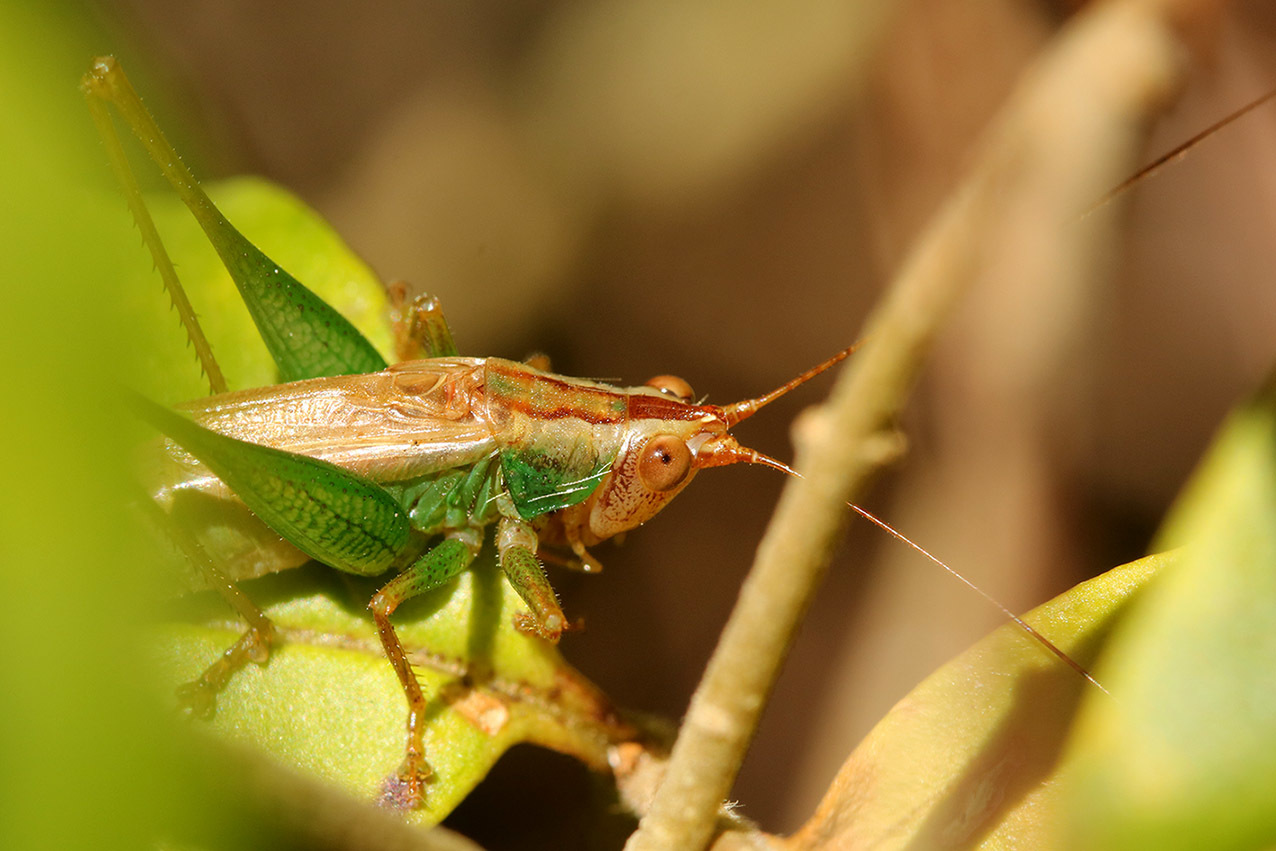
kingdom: Animalia
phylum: Arthropoda
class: Insecta
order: Orthoptera
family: Tettigoniidae
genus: Conocephalus
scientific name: Conocephalus cinnamonifrons
